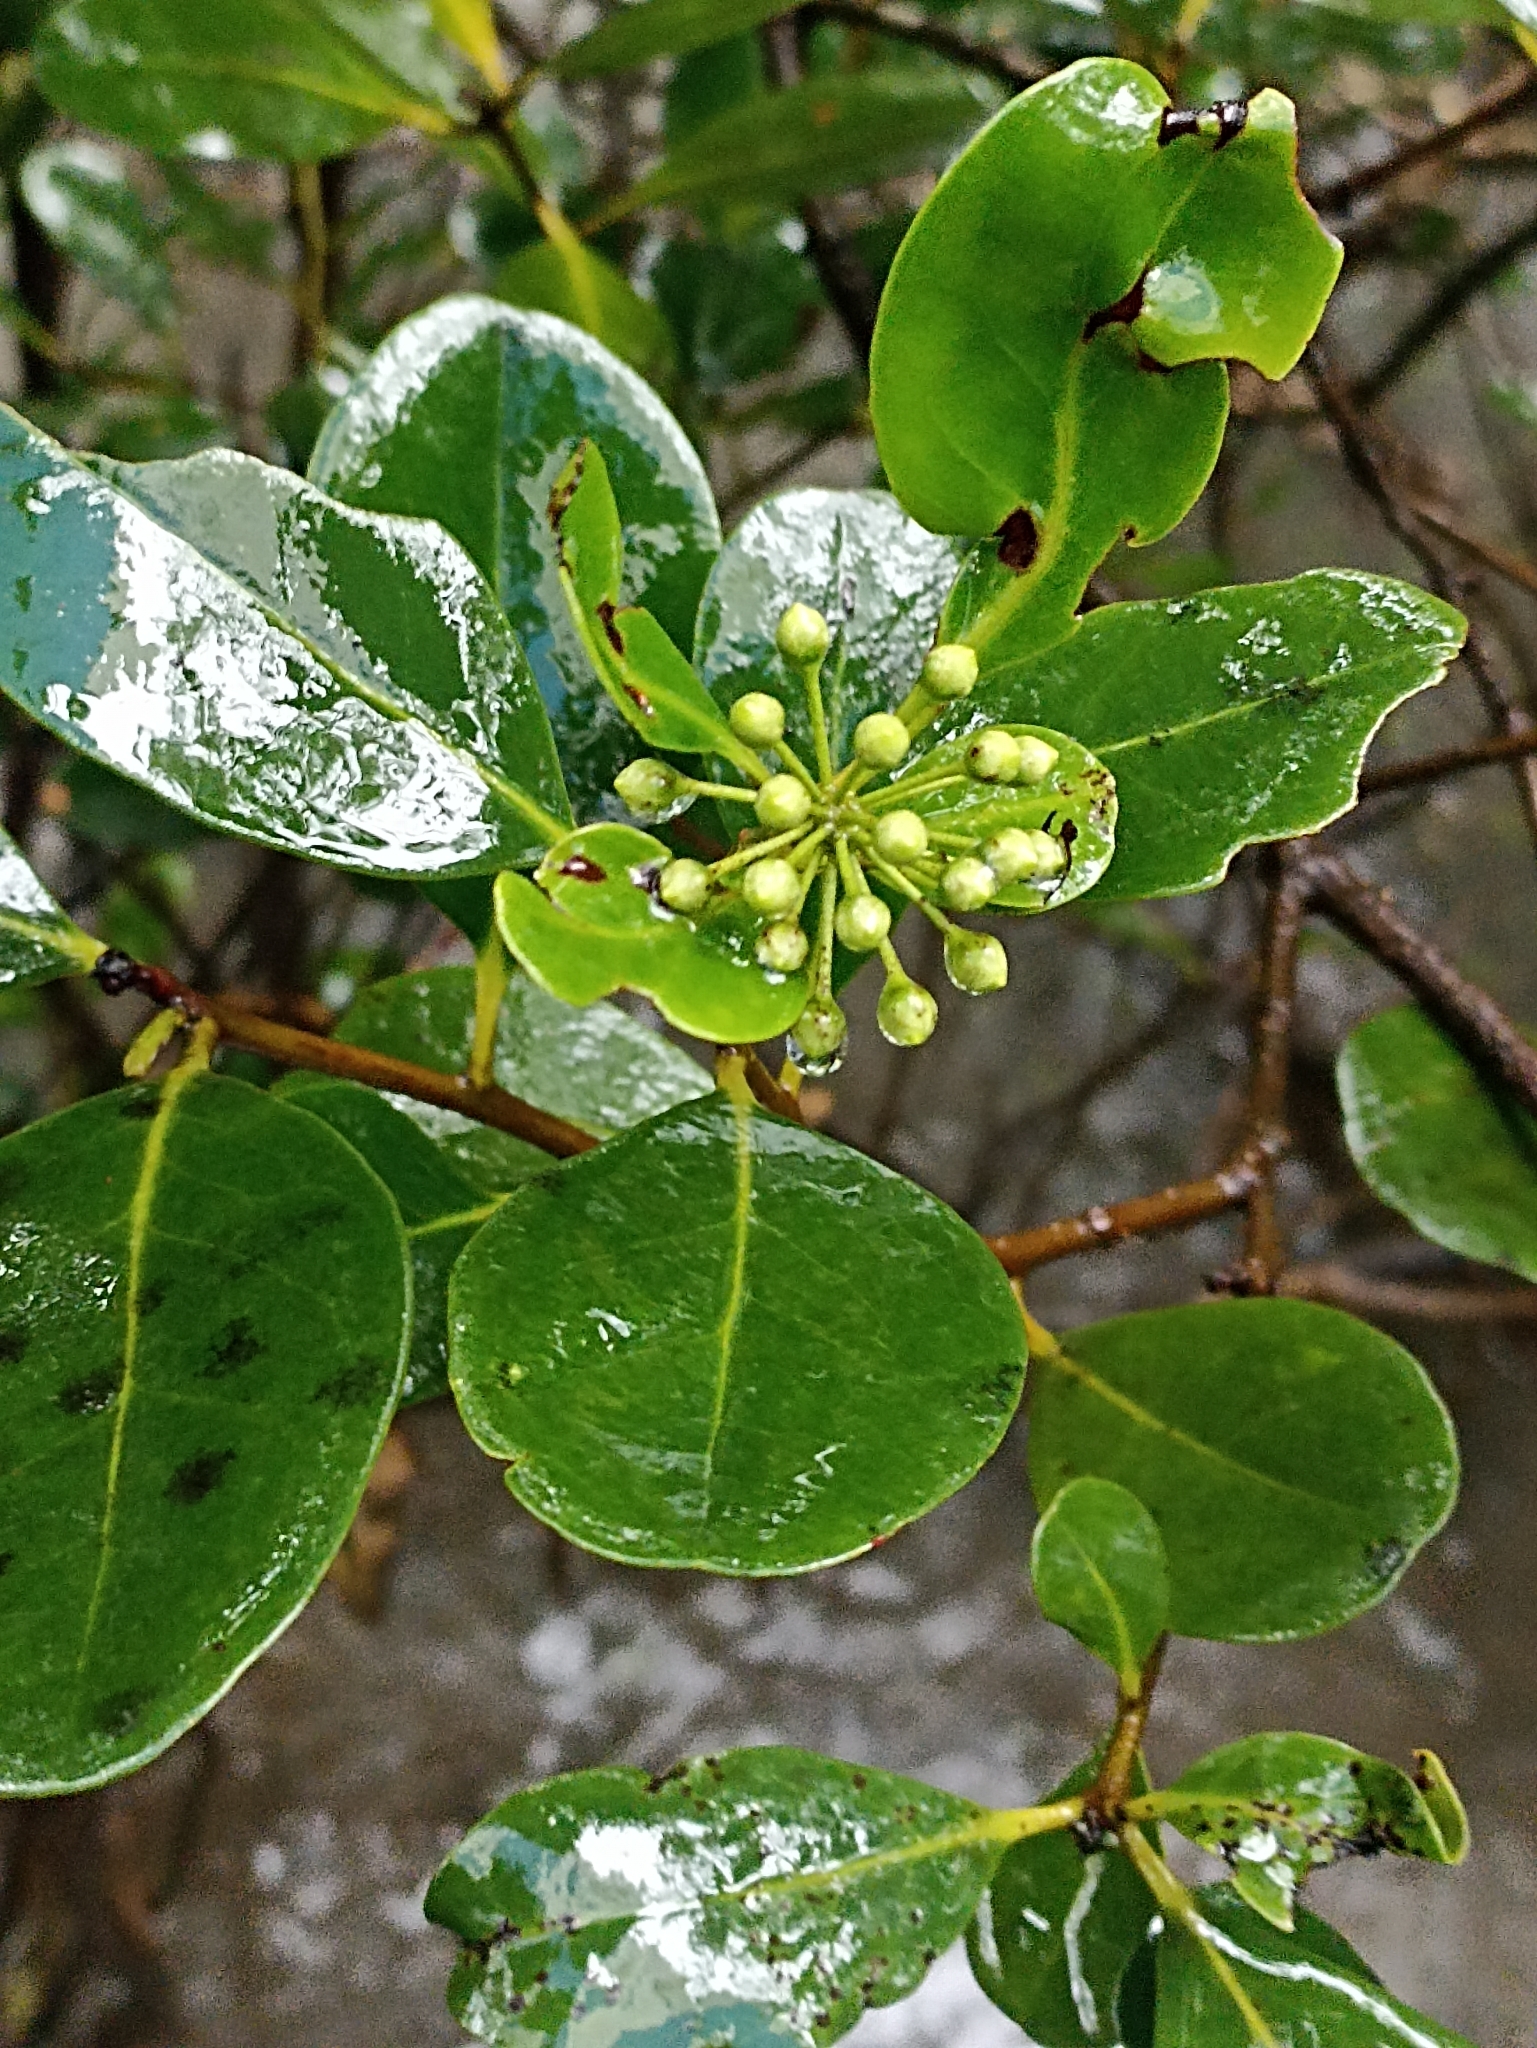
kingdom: Plantae
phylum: Tracheophyta
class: Magnoliopsida
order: Ericales
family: Primulaceae
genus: Aegiceras
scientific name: Aegiceras corniculatum
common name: River mangrove
